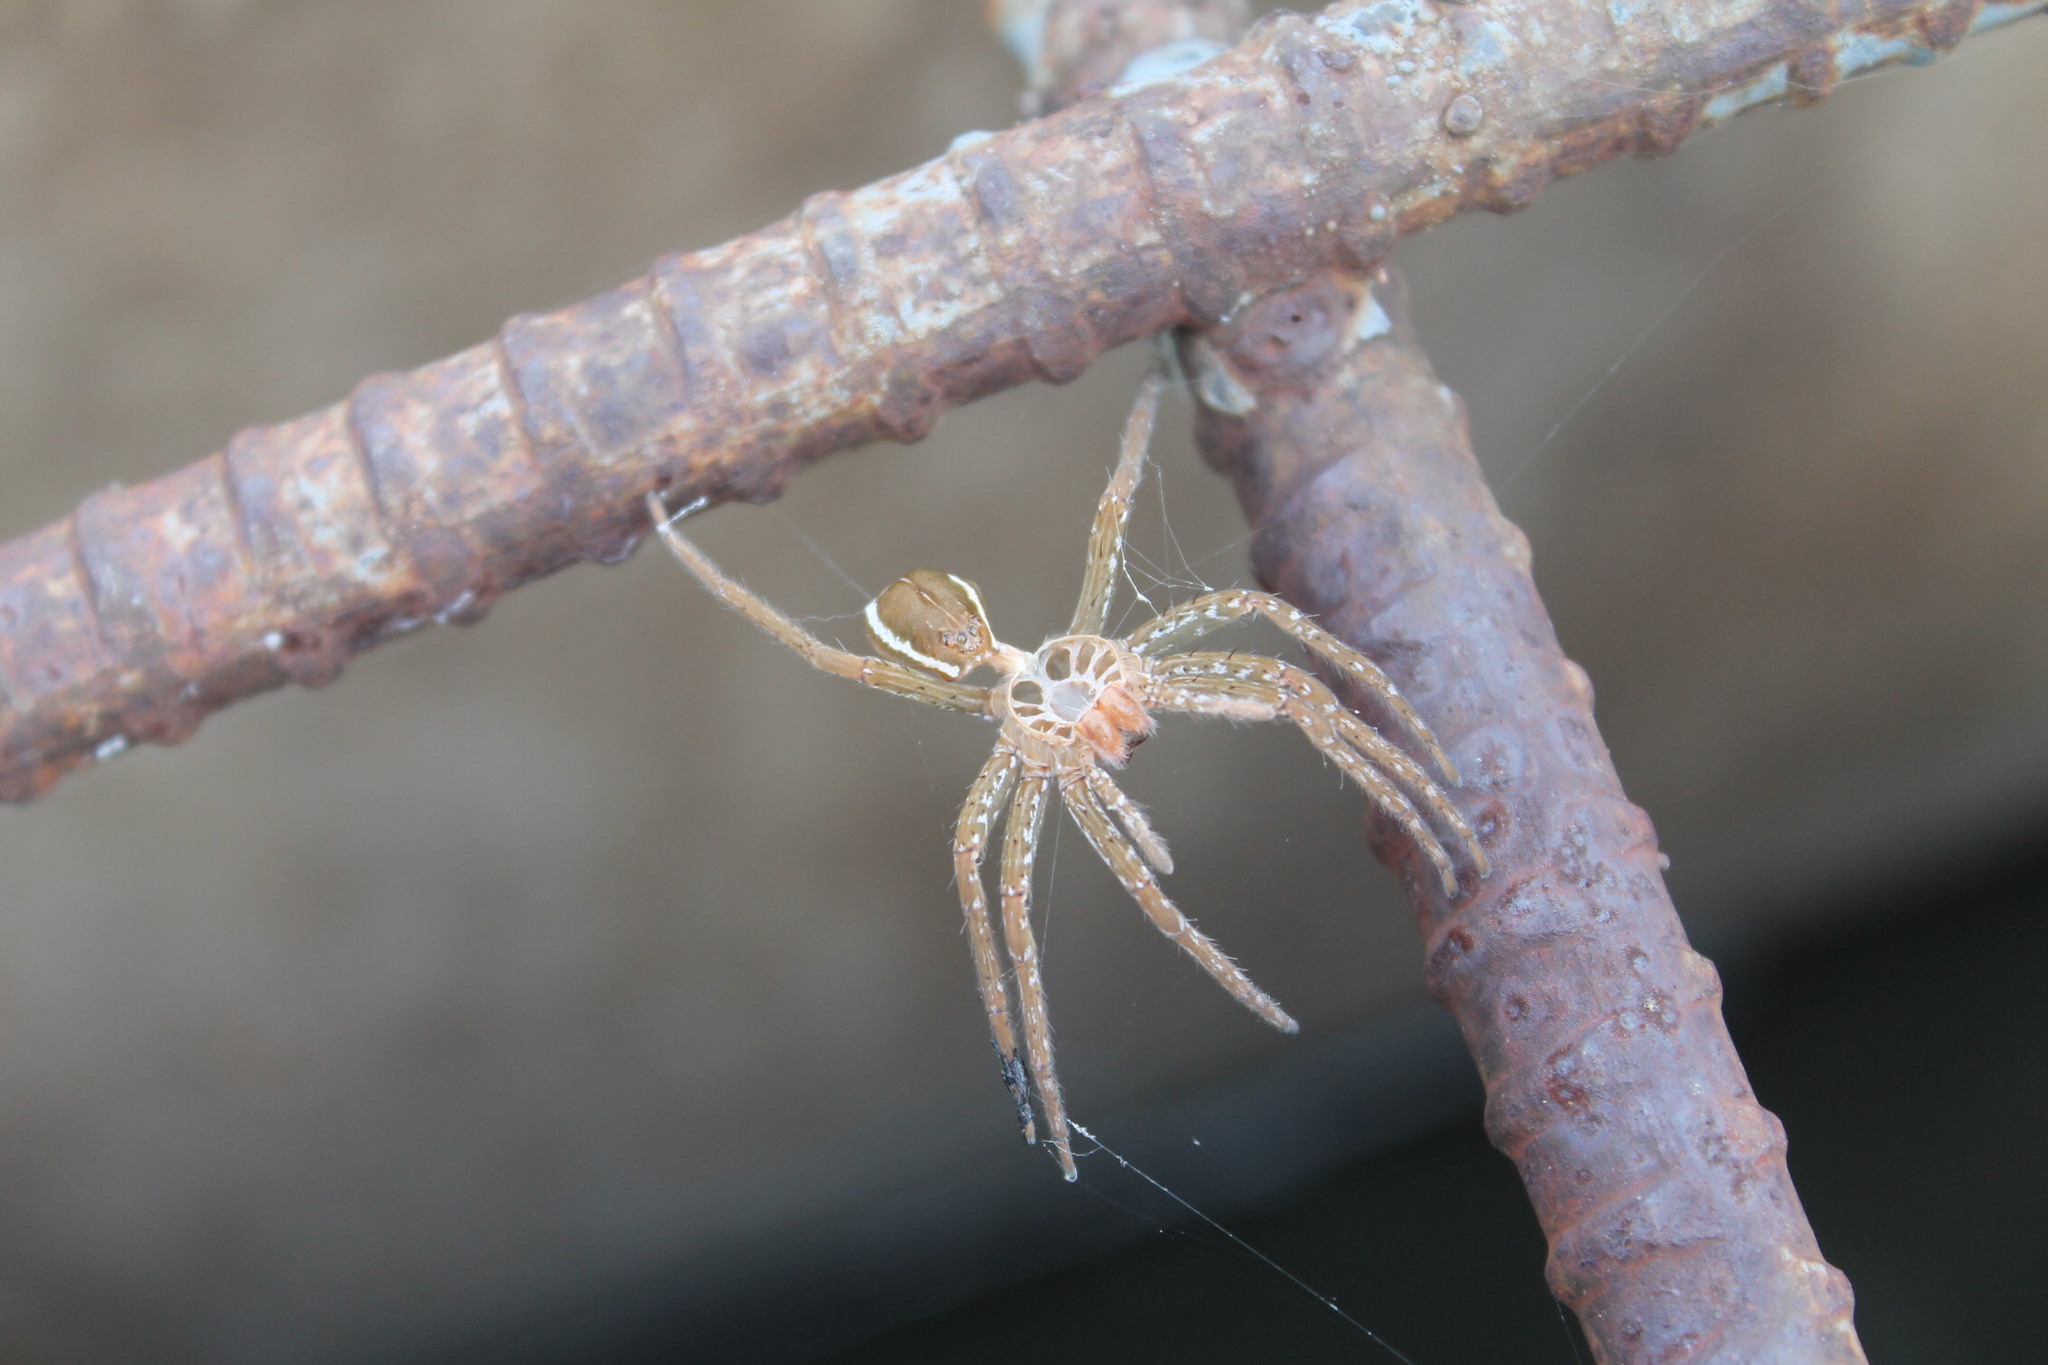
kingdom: Animalia
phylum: Arthropoda
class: Arachnida
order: Araneae
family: Pisauridae
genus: Dolomedes
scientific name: Dolomedes triton
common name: Six-spotted fishing spider
